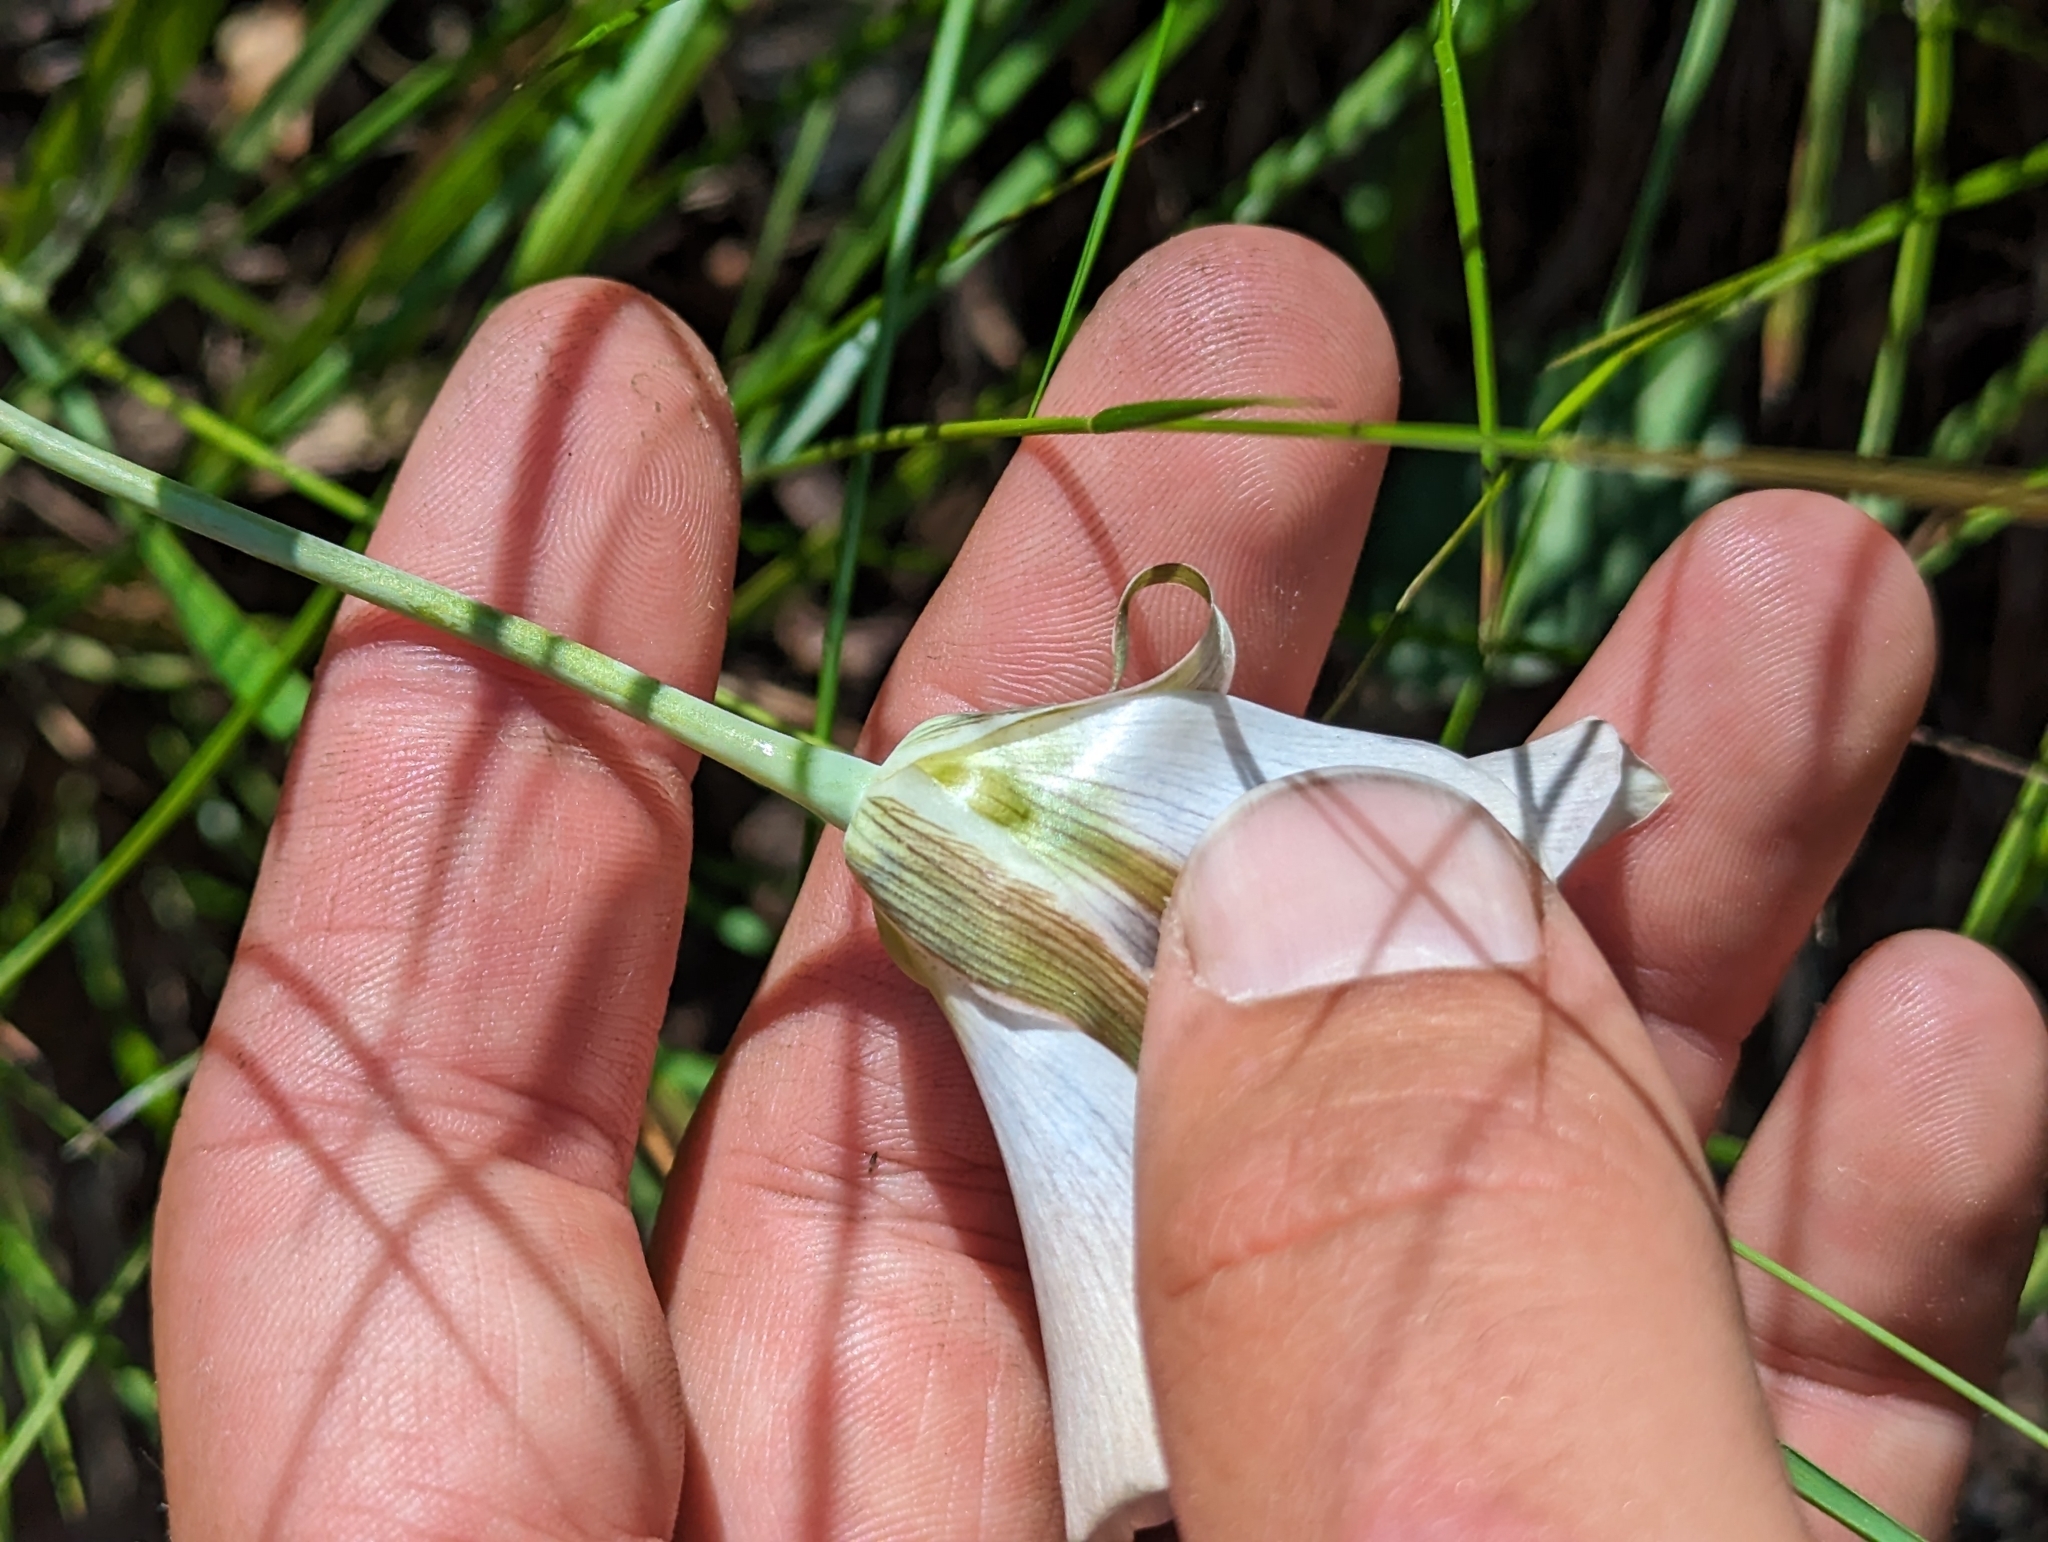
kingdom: Plantae
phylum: Tracheophyta
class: Liliopsida
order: Liliales
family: Liliaceae
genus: Calochortus
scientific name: Calochortus leichtlinii
